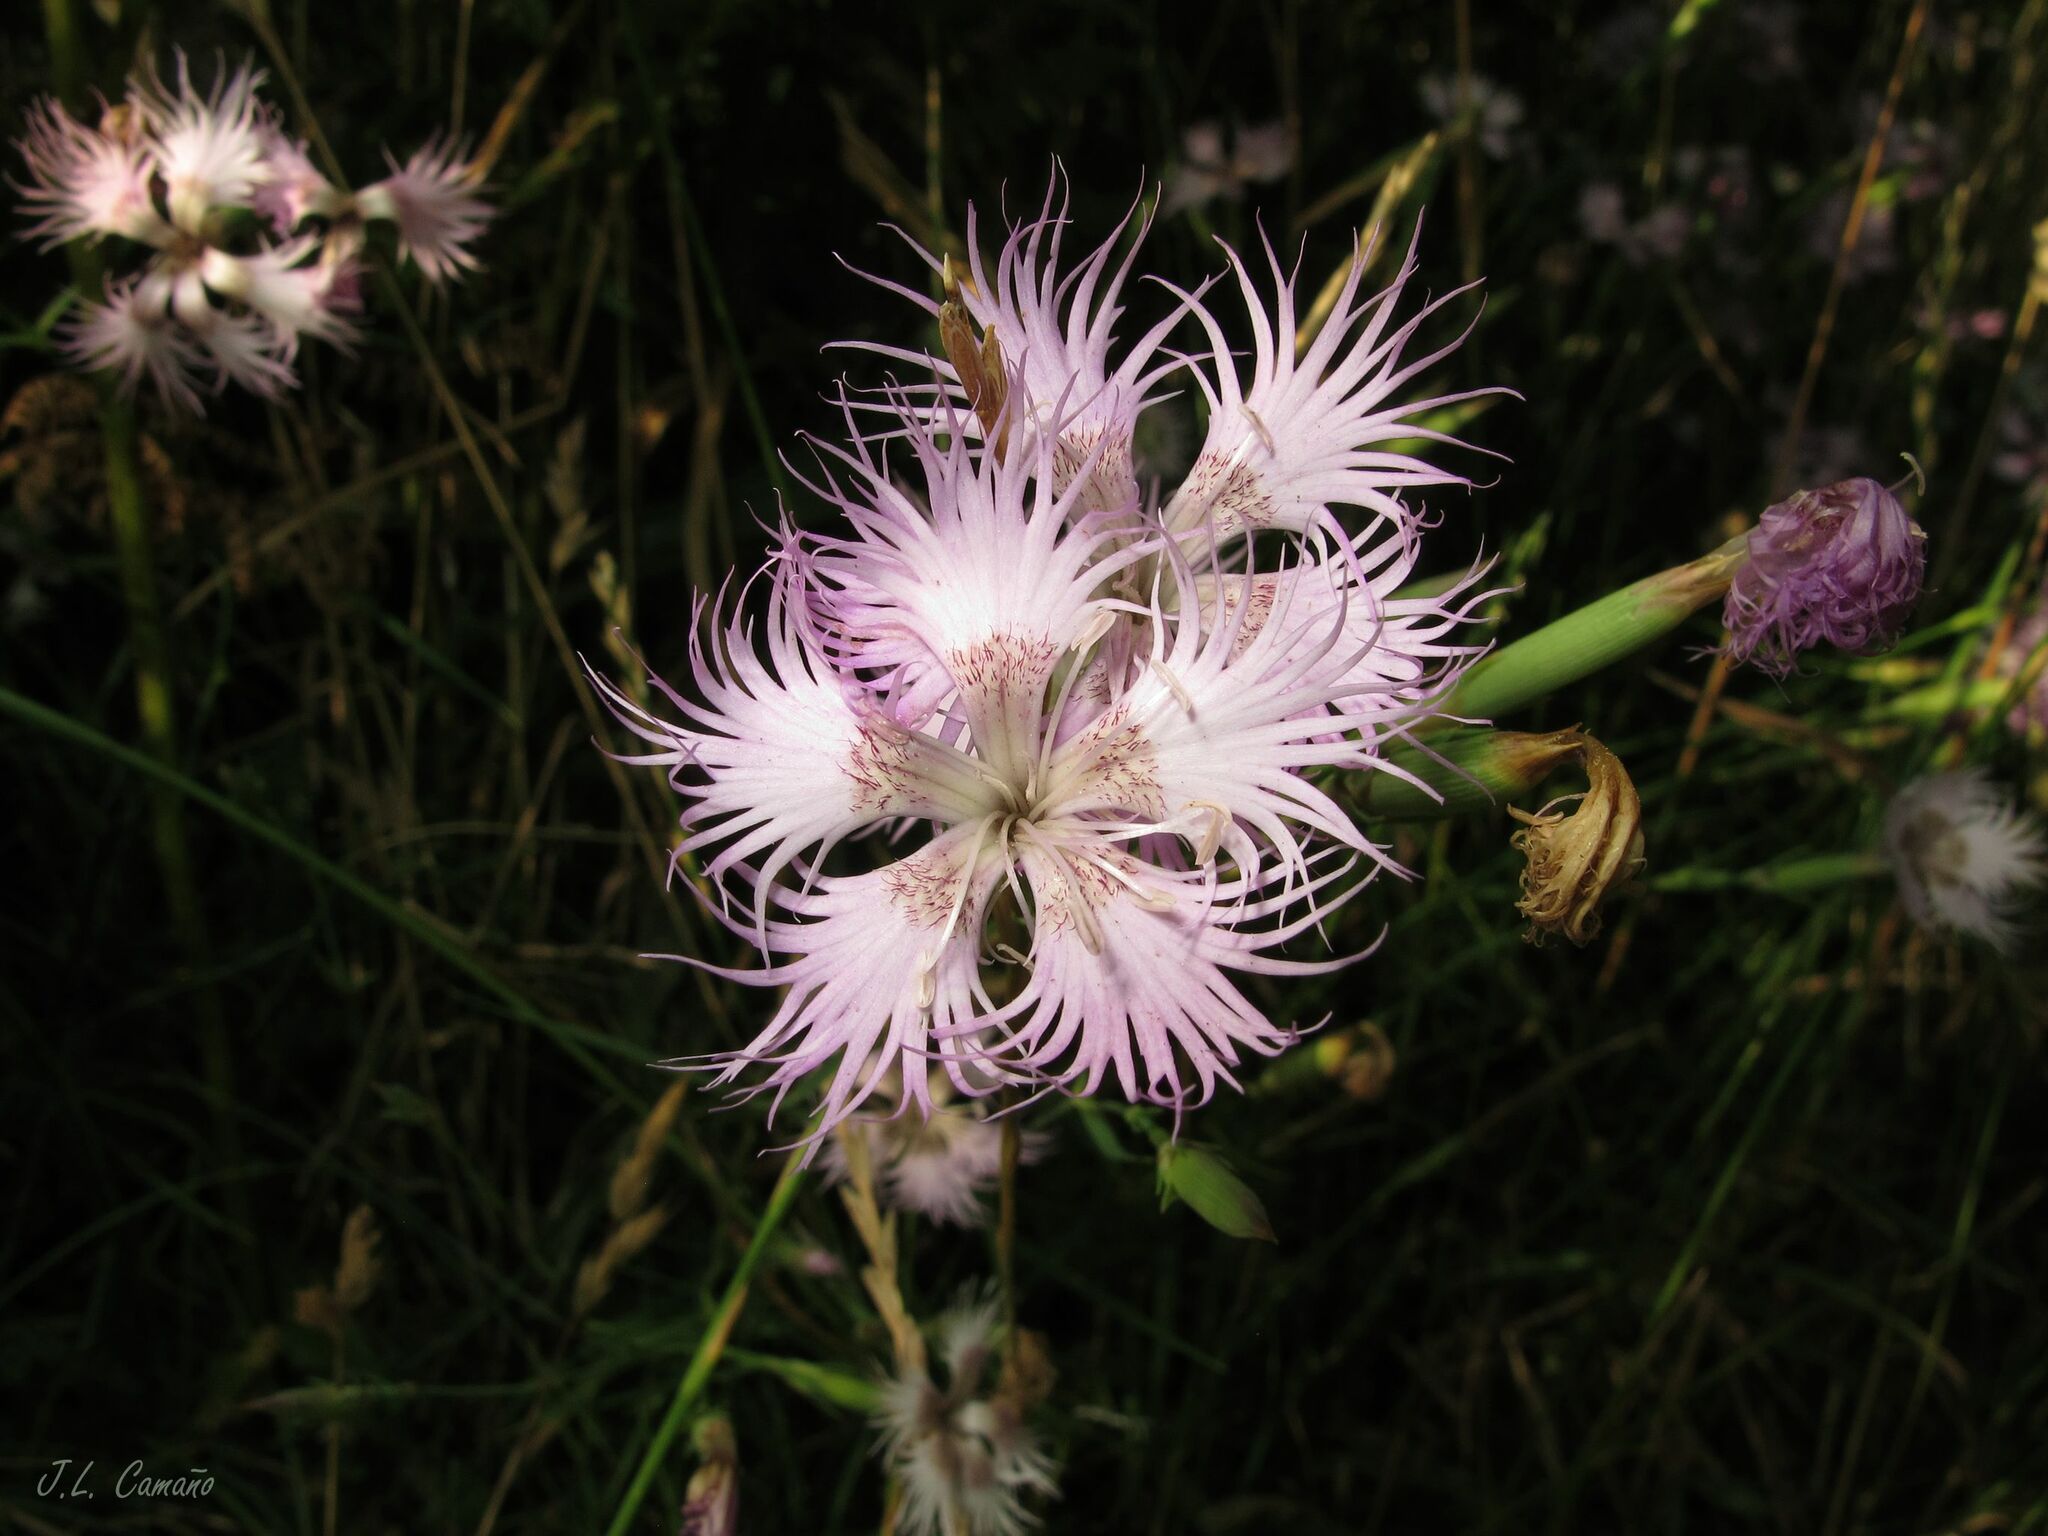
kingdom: Plantae
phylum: Tracheophyta
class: Magnoliopsida
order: Caryophyllales
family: Caryophyllaceae
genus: Dianthus
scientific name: Dianthus hyssopifolius
